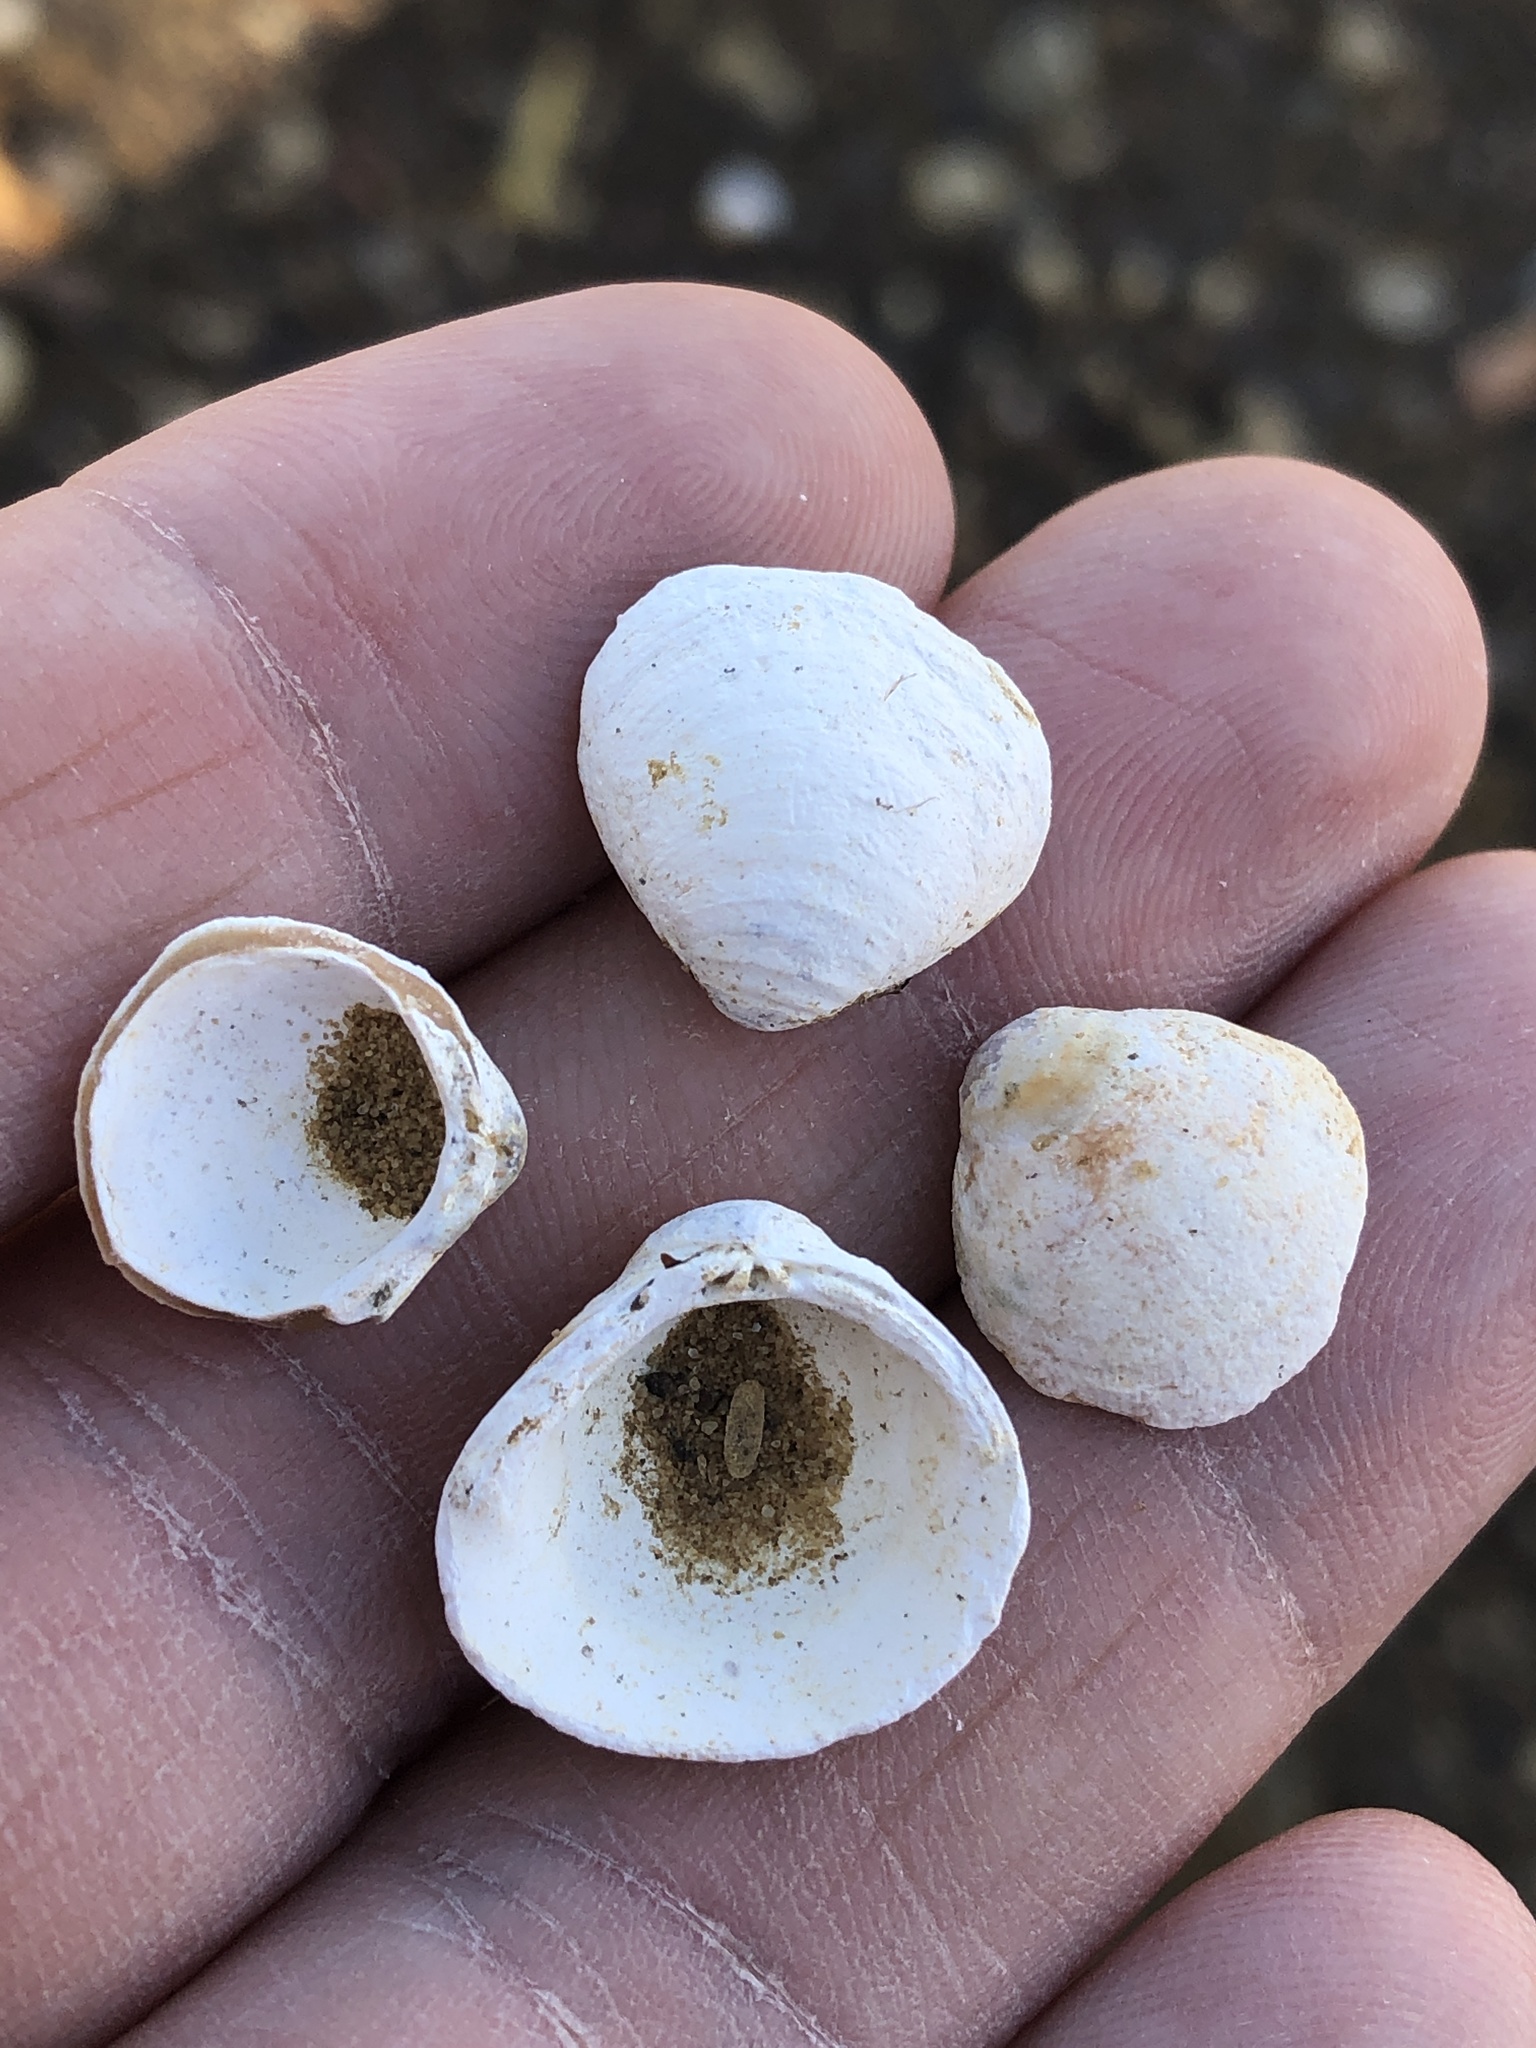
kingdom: Animalia
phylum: Mollusca
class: Bivalvia
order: Venerida
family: Cyrenidae
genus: Corbicula
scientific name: Corbicula fluminea
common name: Asian clam
